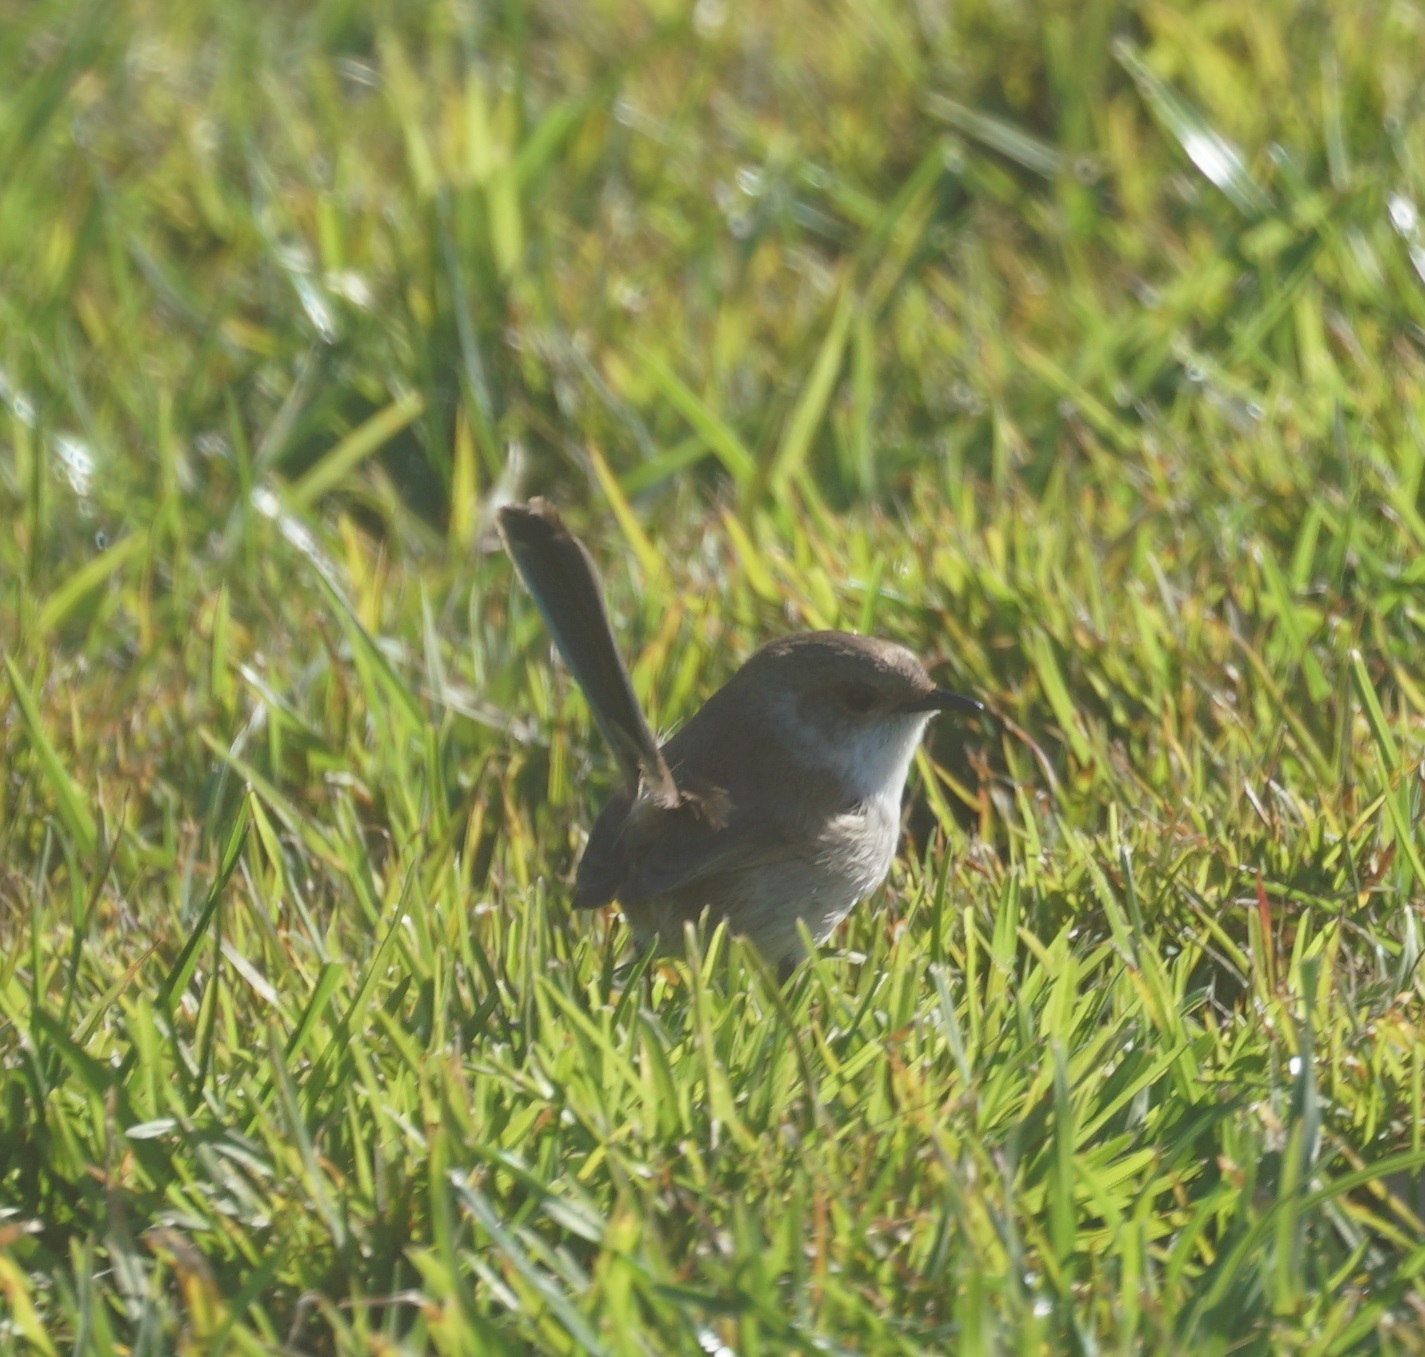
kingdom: Animalia
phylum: Chordata
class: Aves
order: Passeriformes
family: Maluridae
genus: Malurus
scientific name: Malurus cyaneus
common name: Superb fairywren
